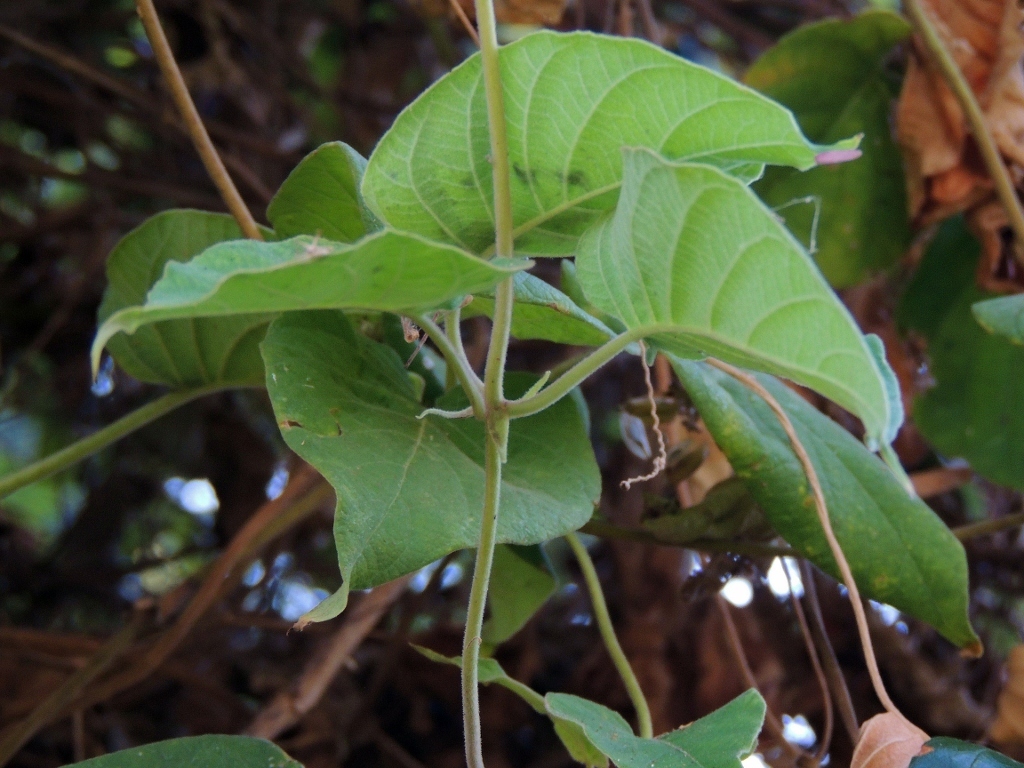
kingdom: Plantae
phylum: Tracheophyta
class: Magnoliopsida
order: Gentianales
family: Rubiaceae
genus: Paederia
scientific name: Paederia bojeriana
